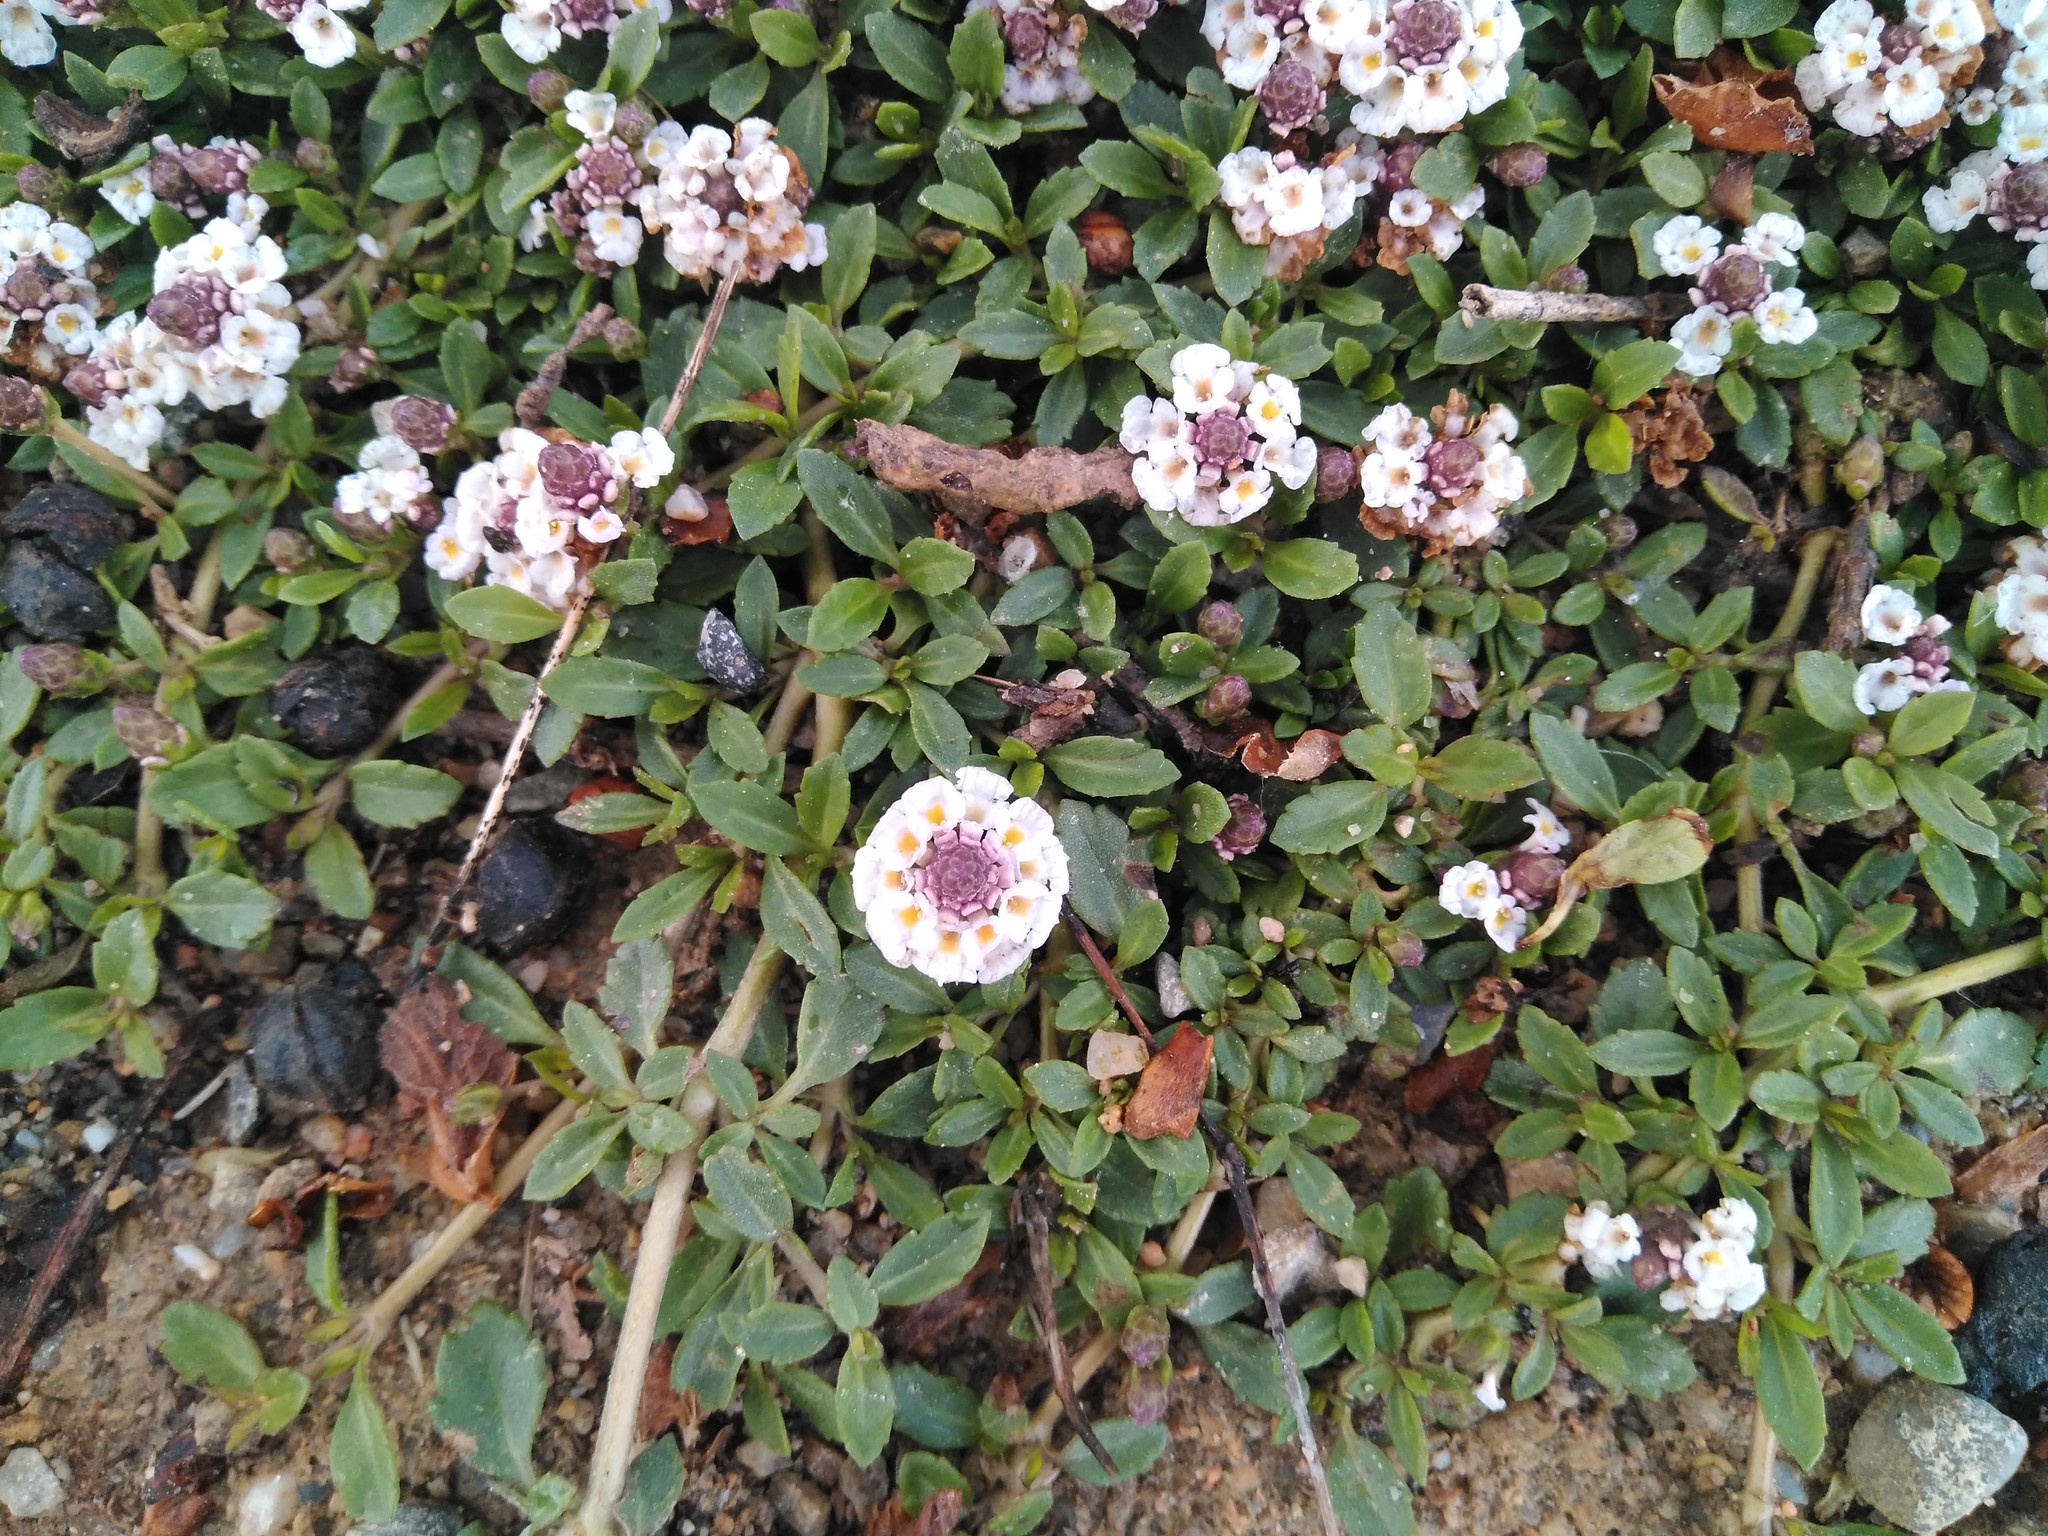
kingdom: Plantae
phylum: Tracheophyta
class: Magnoliopsida
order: Lamiales
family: Verbenaceae
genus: Phyla
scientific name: Phyla nodiflora
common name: Frogfruit
